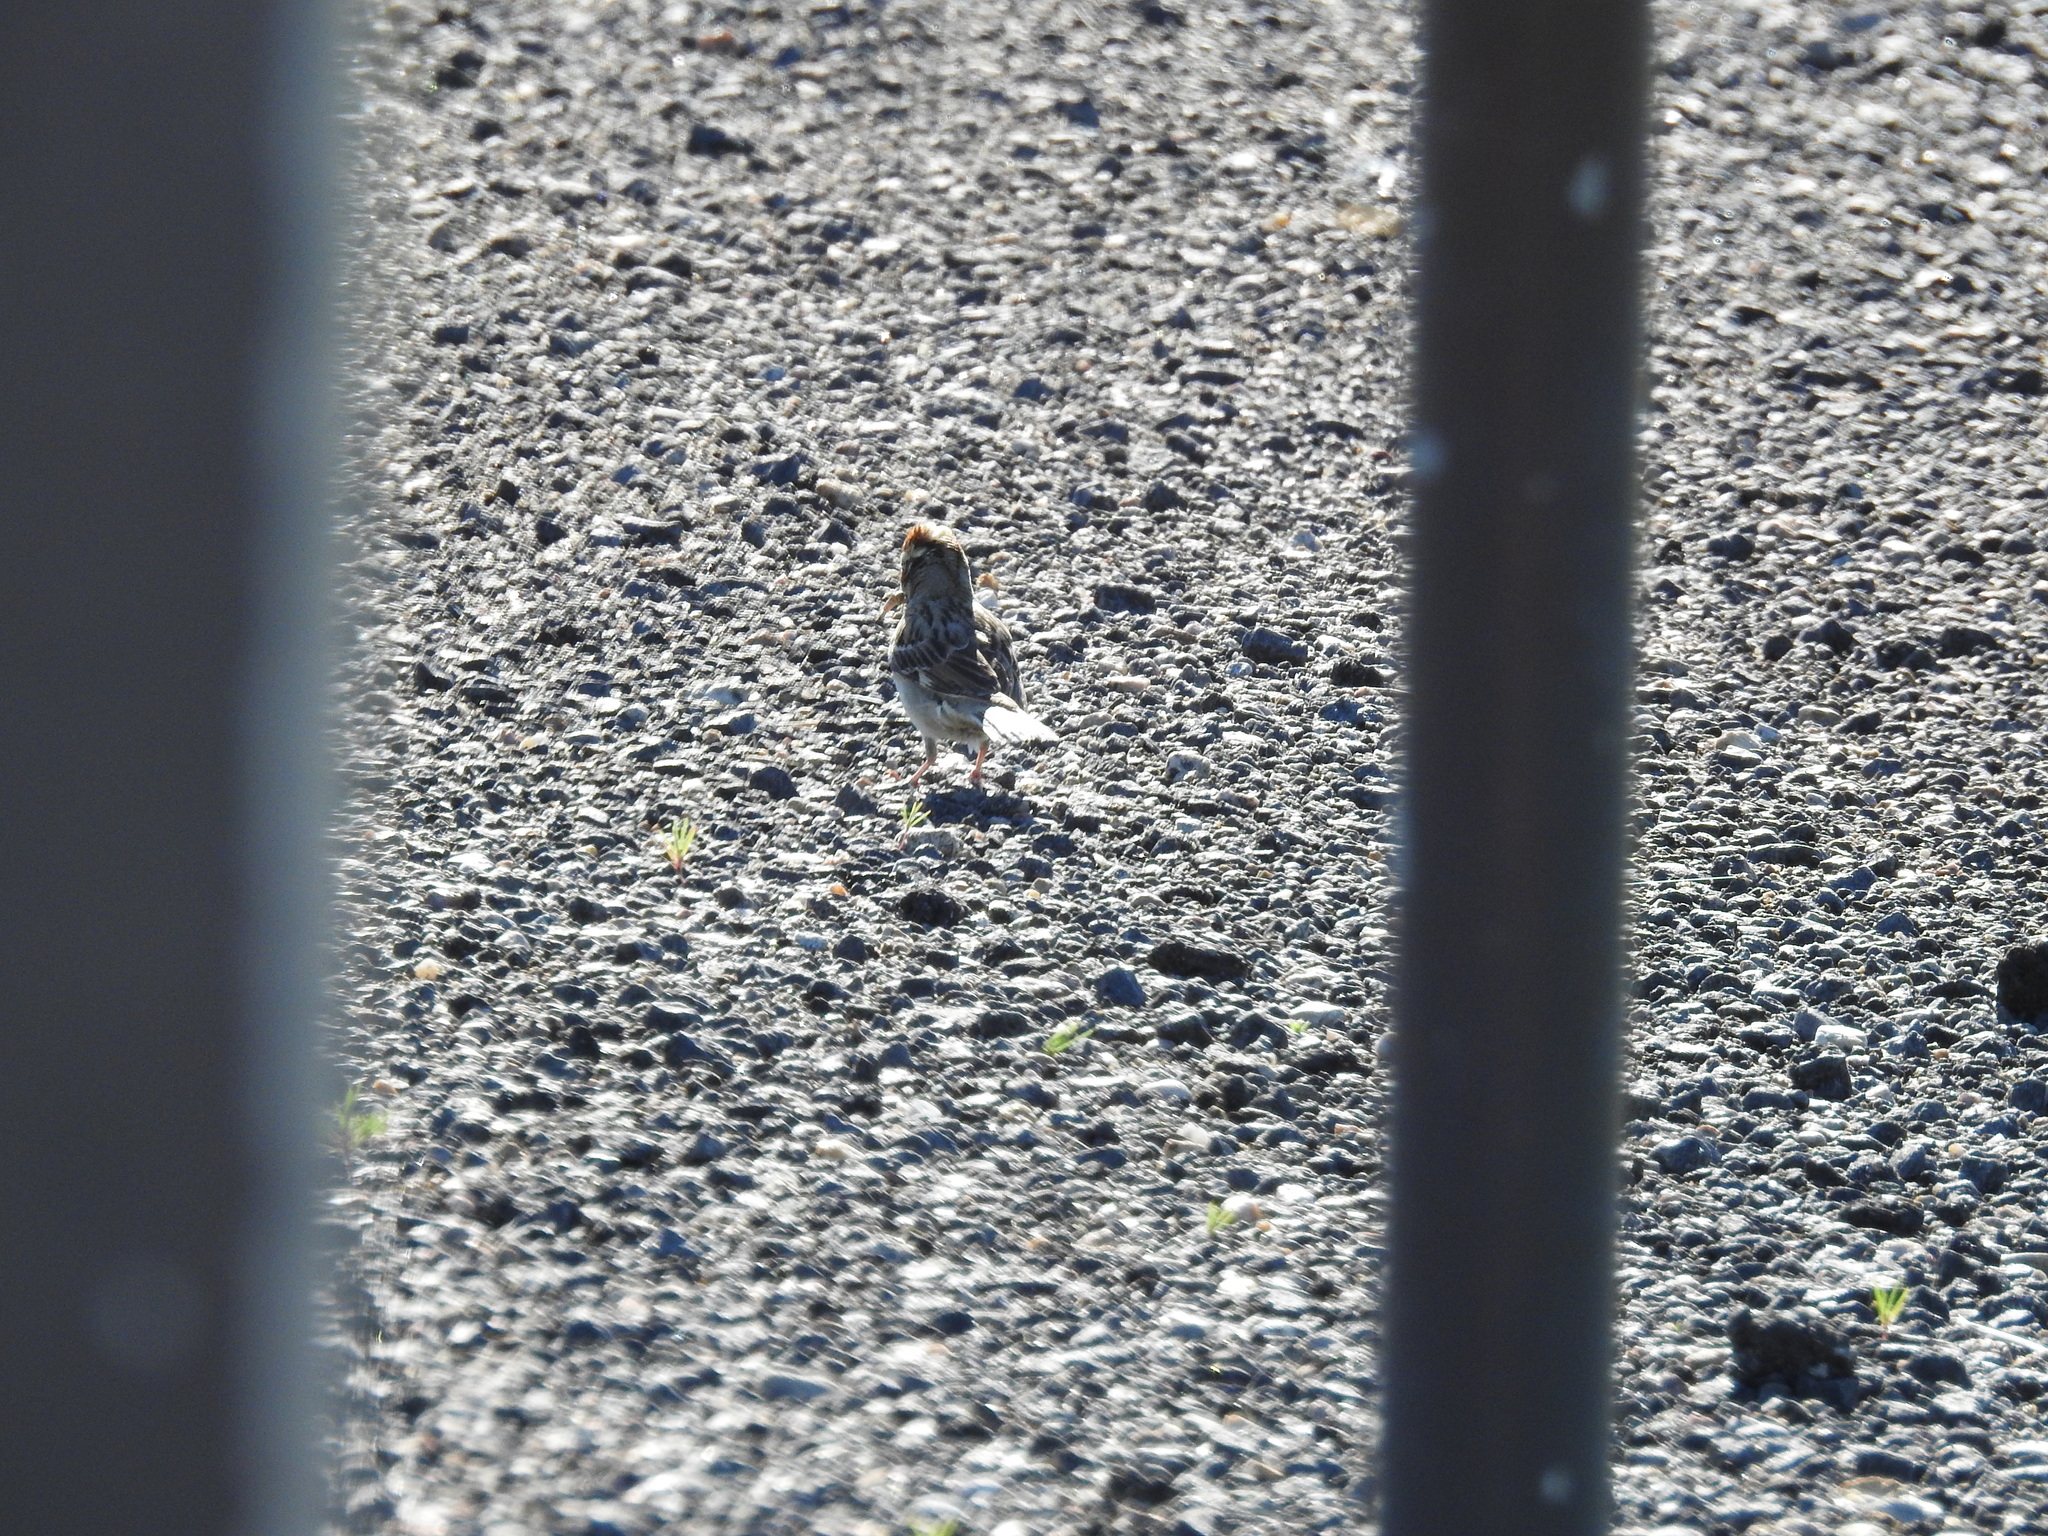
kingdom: Animalia
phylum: Chordata
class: Aves
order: Passeriformes
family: Passerellidae
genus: Chondestes
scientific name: Chondestes grammacus
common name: Lark sparrow
